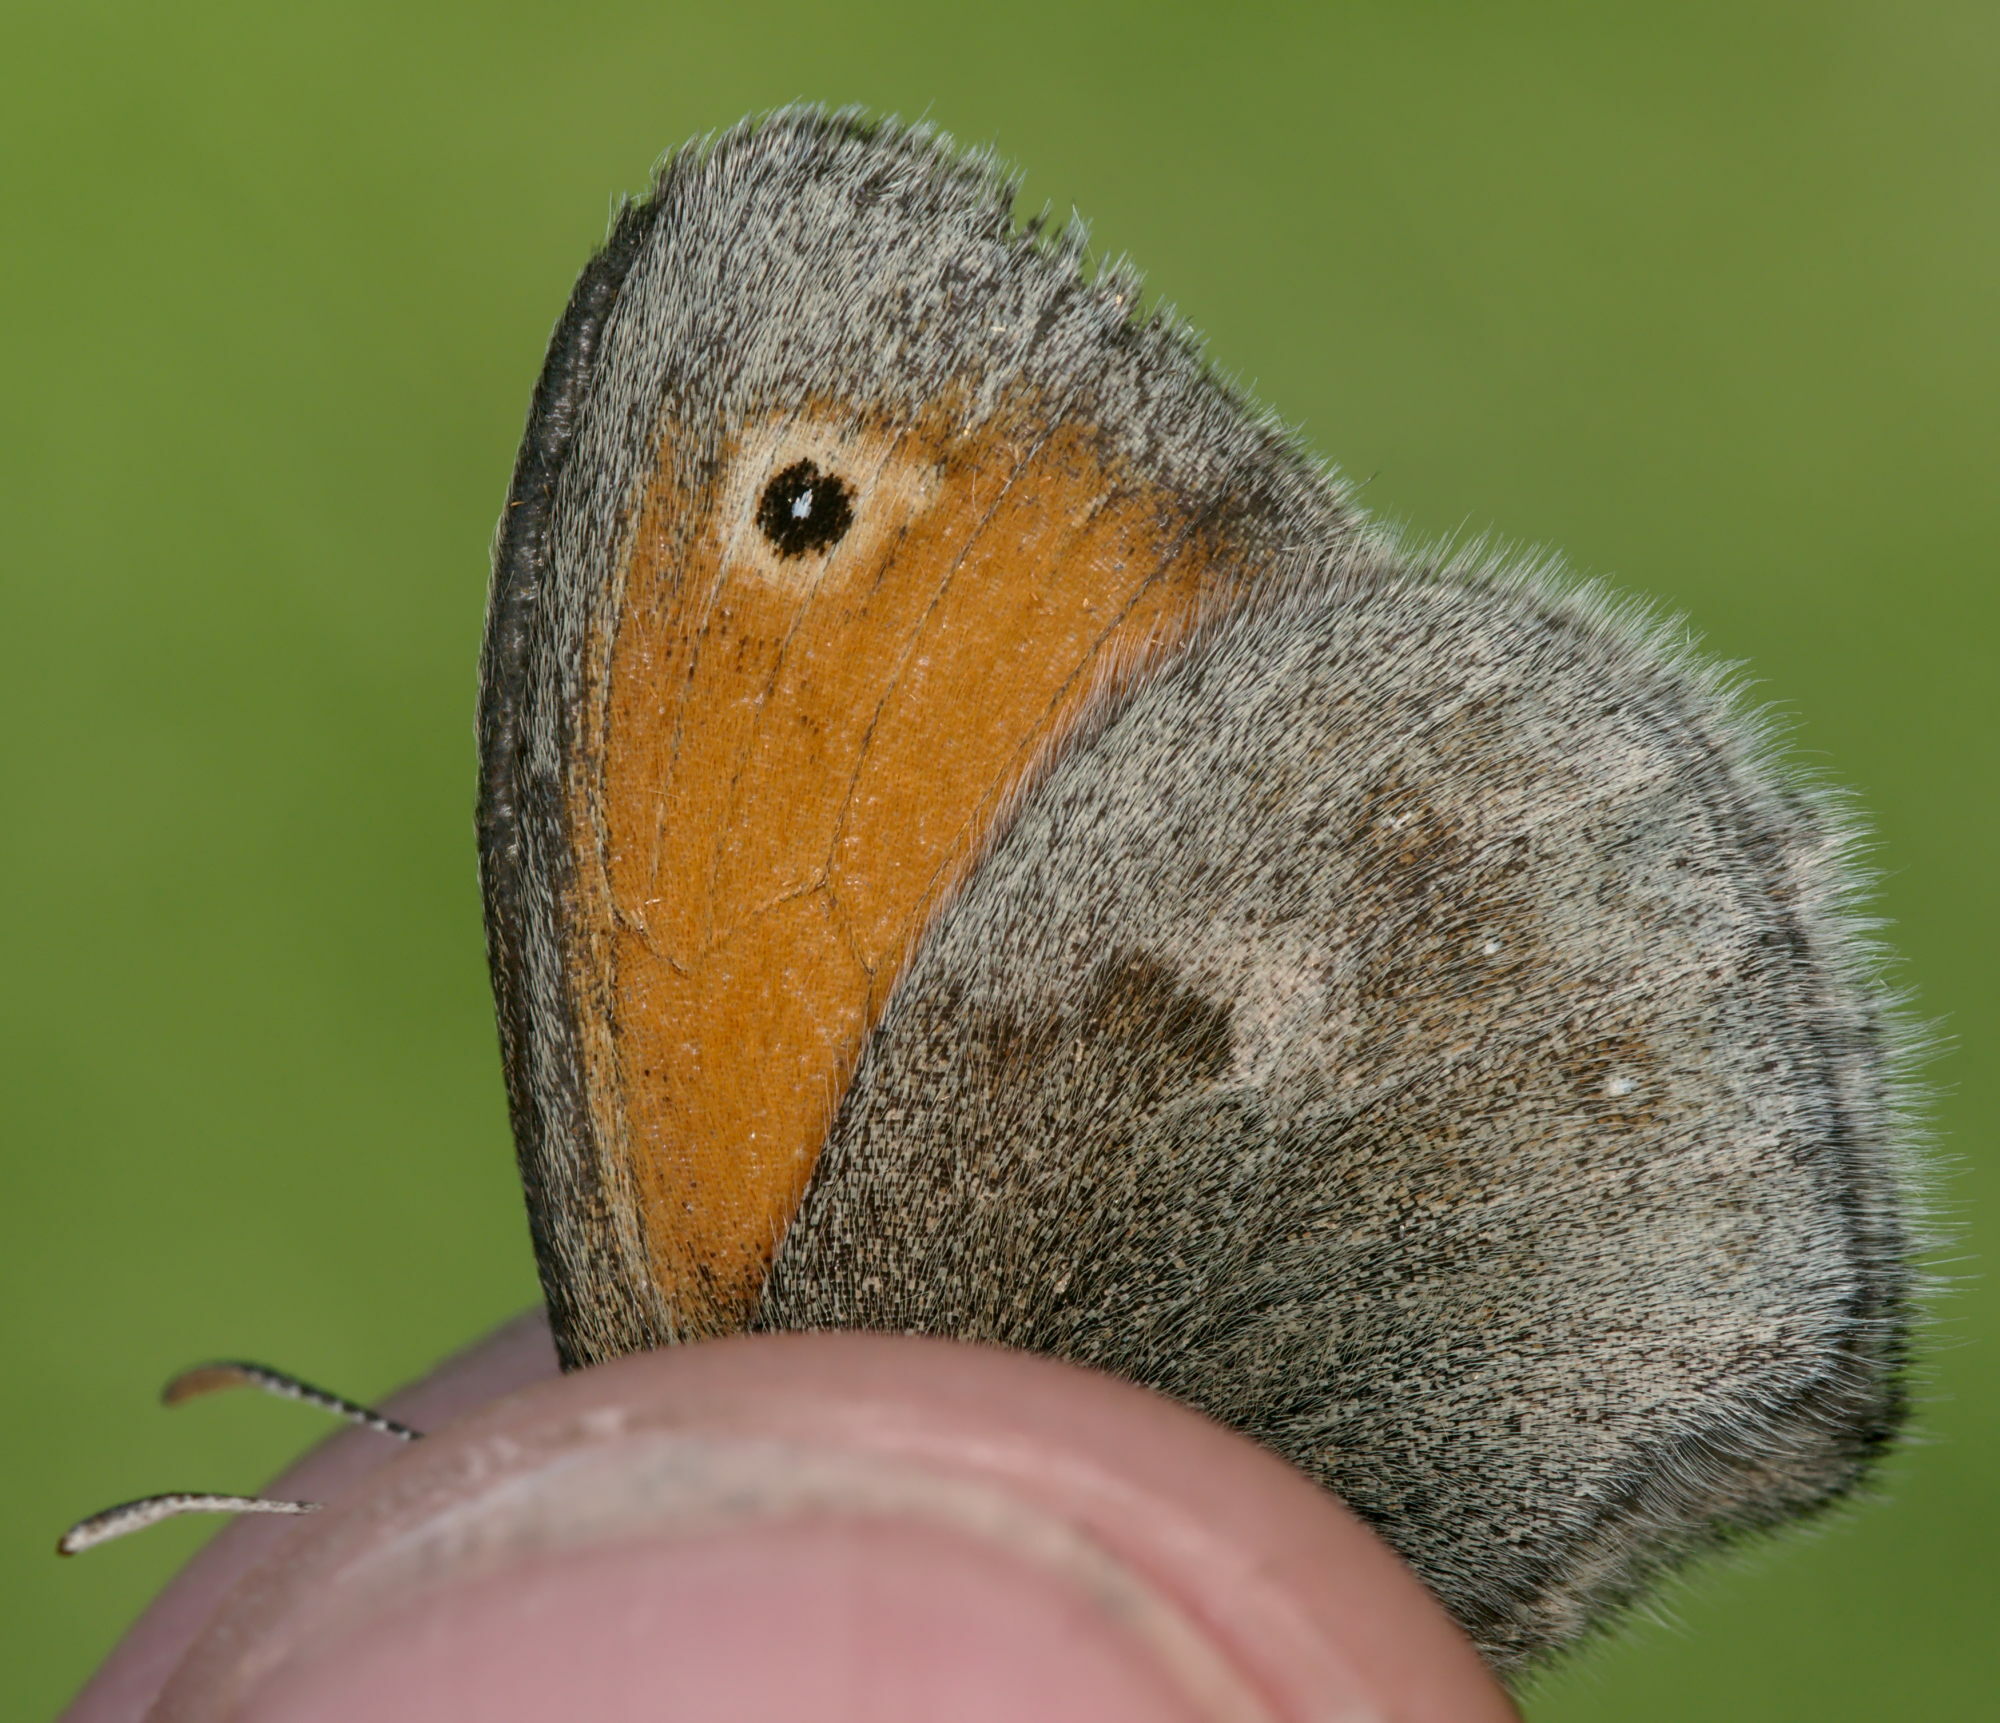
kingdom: Animalia
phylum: Arthropoda
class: Insecta
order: Lepidoptera
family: Nymphalidae
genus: Coenonympha
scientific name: Coenonympha pamphilus
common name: Small heath
